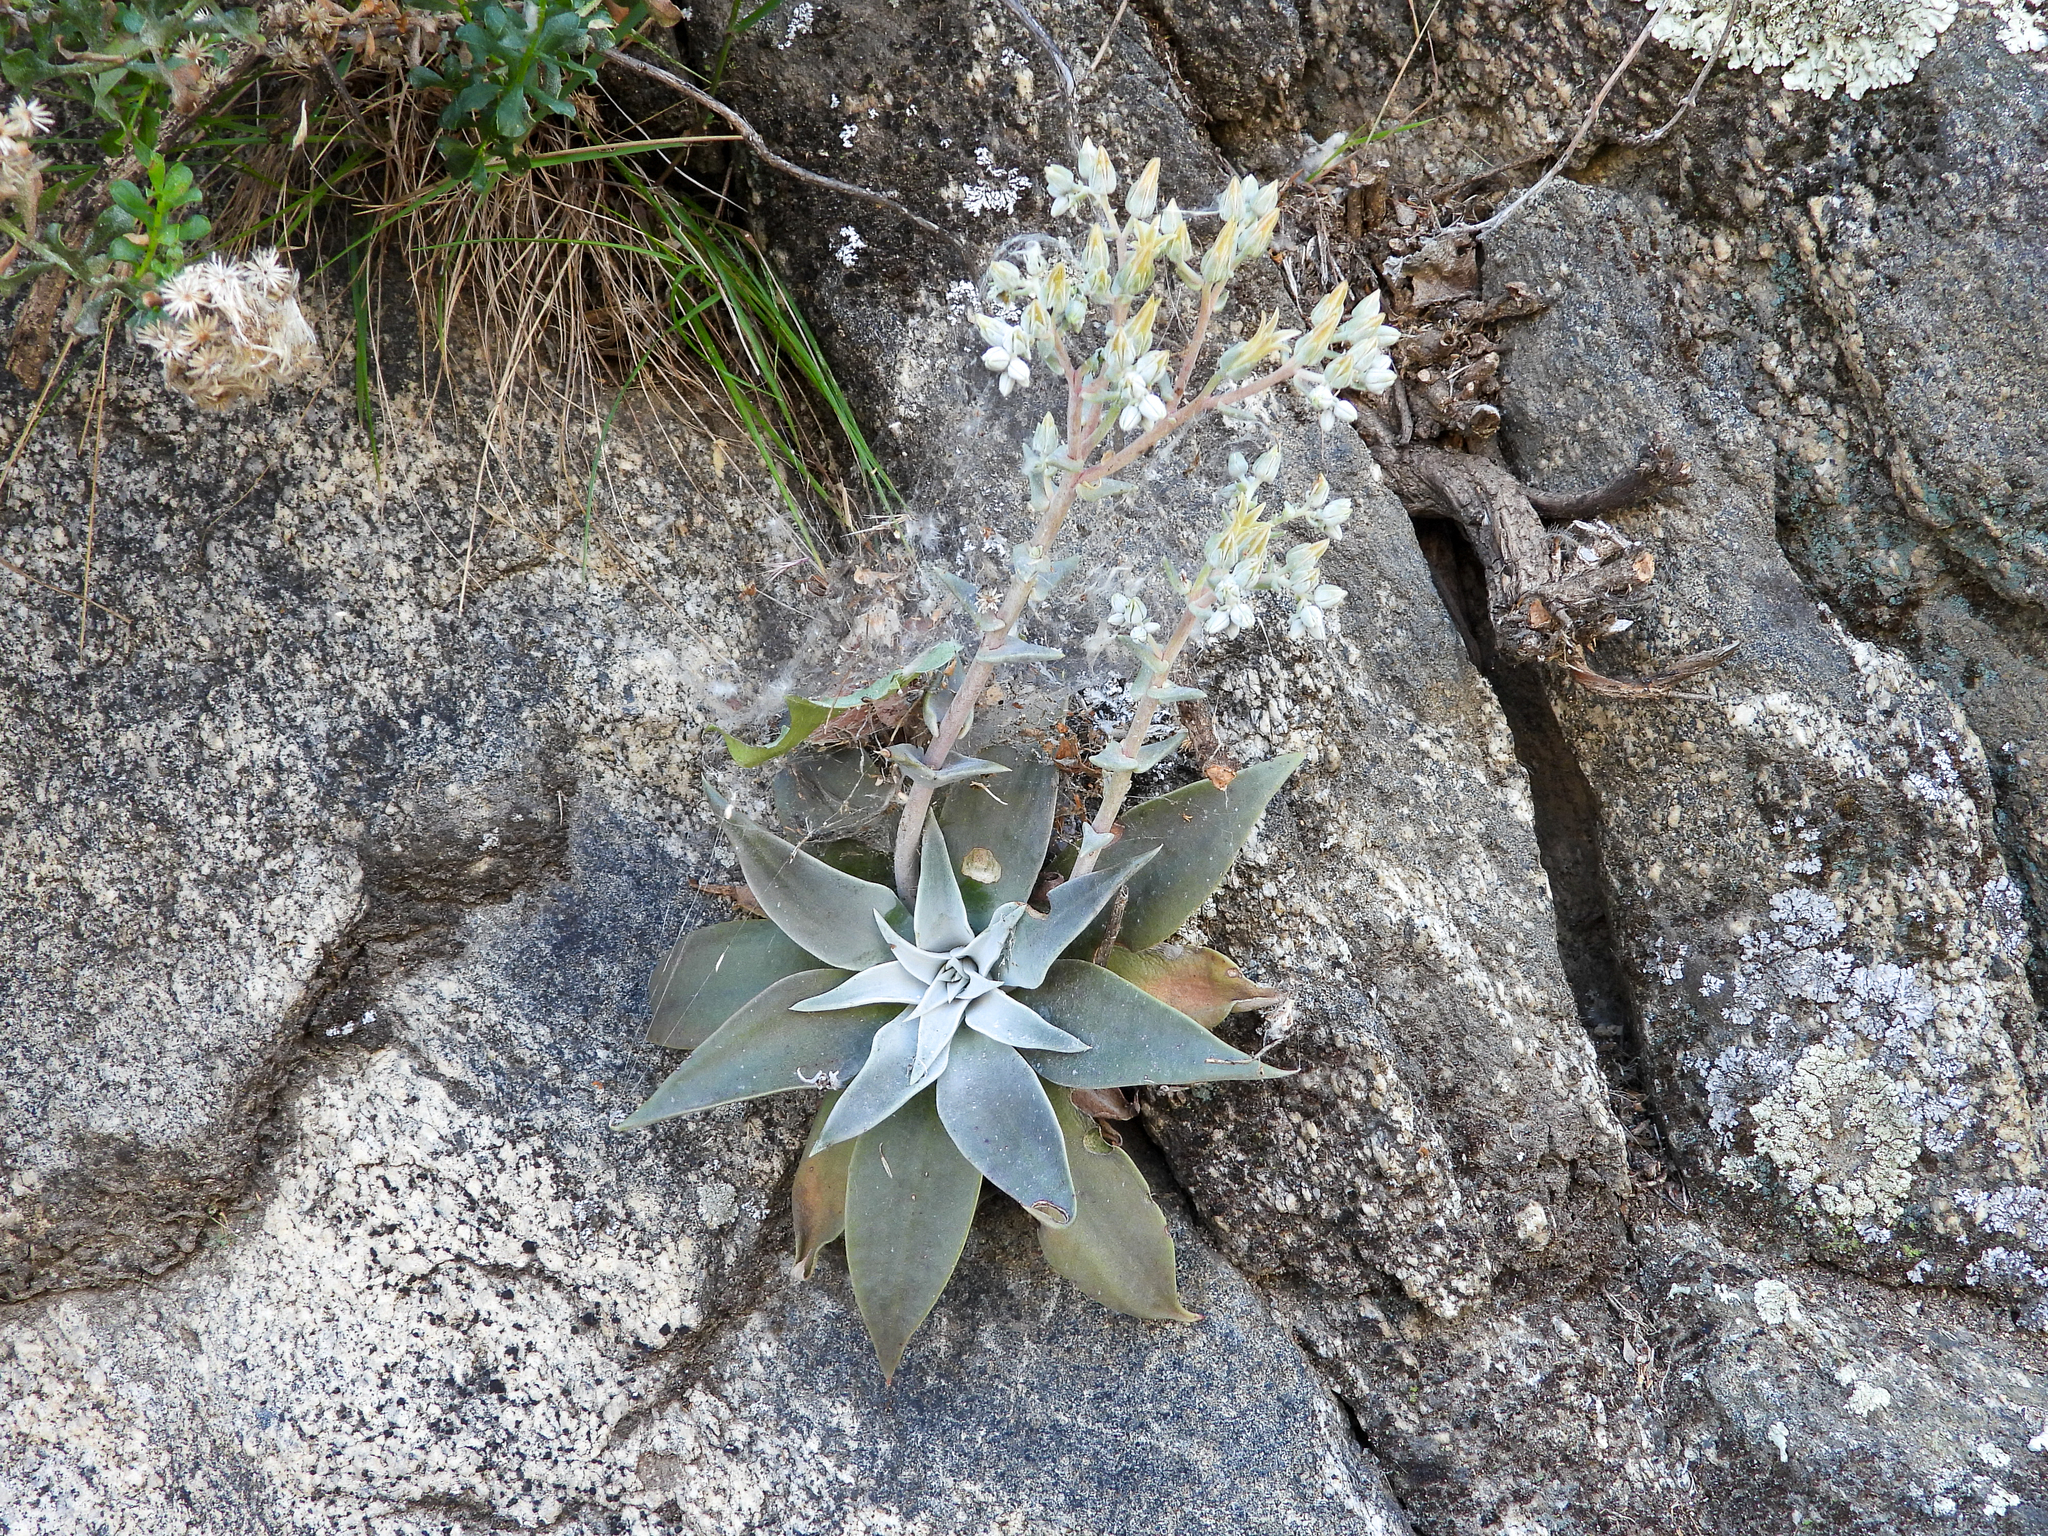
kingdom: Plantae
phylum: Tracheophyta
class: Magnoliopsida
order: Saxifragales
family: Crassulaceae
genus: Dudleya
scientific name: Dudleya abramsii
